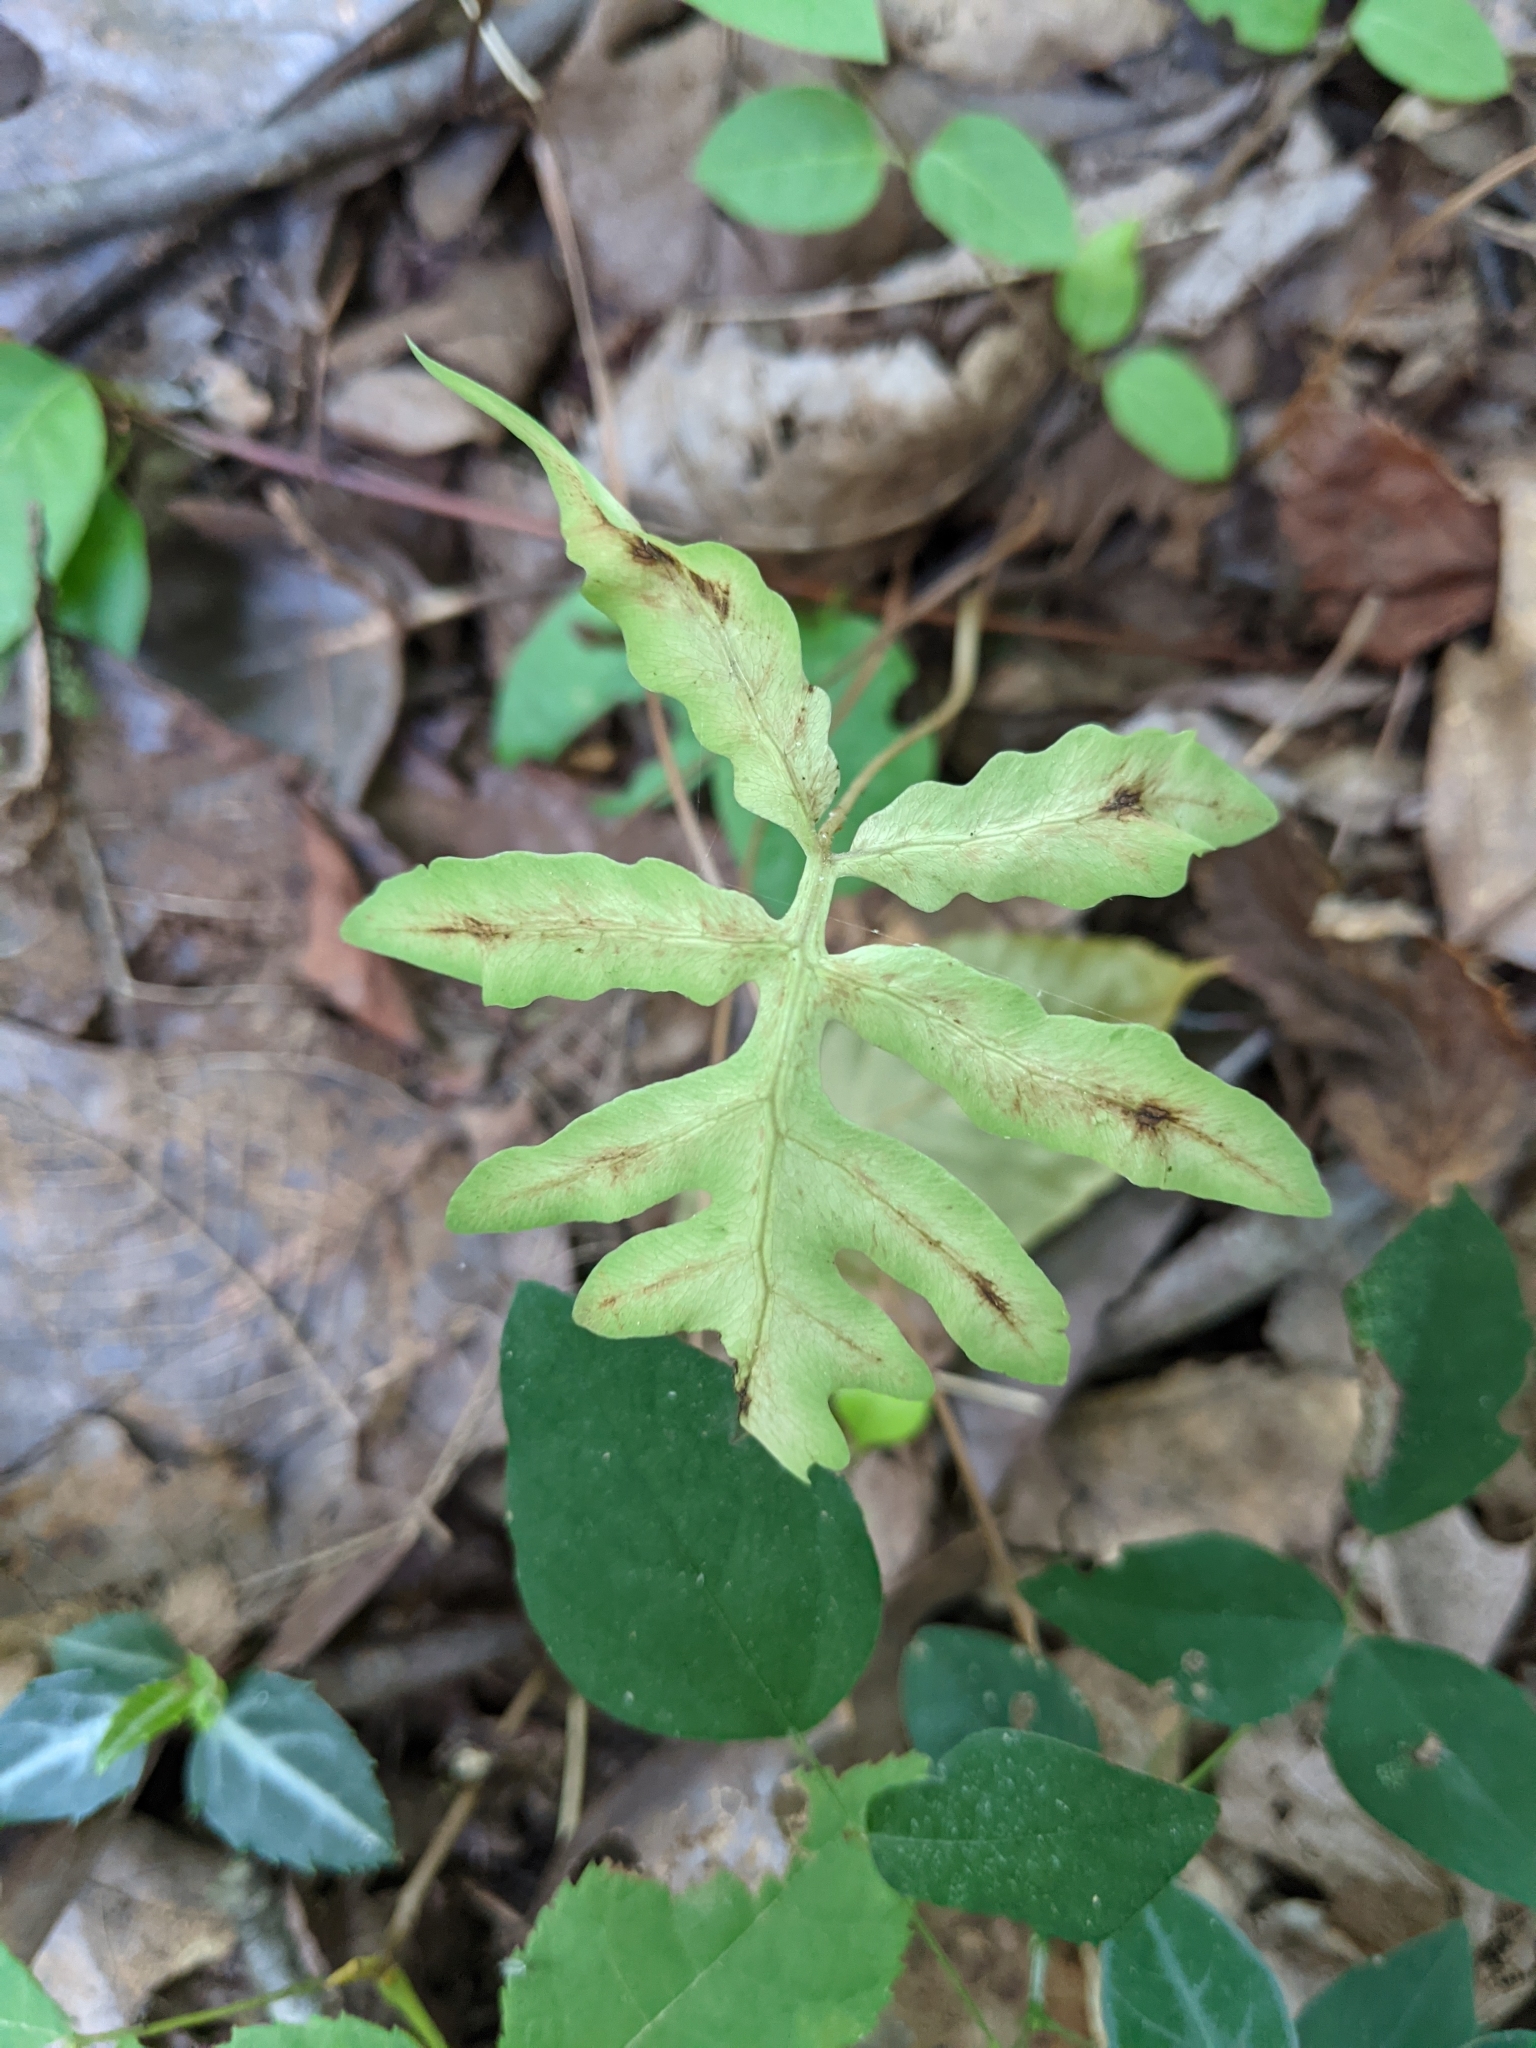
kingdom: Plantae
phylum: Tracheophyta
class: Polypodiopsida
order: Polypodiales
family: Onocleaceae
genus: Onoclea
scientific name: Onoclea sensibilis
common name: Sensitive fern
